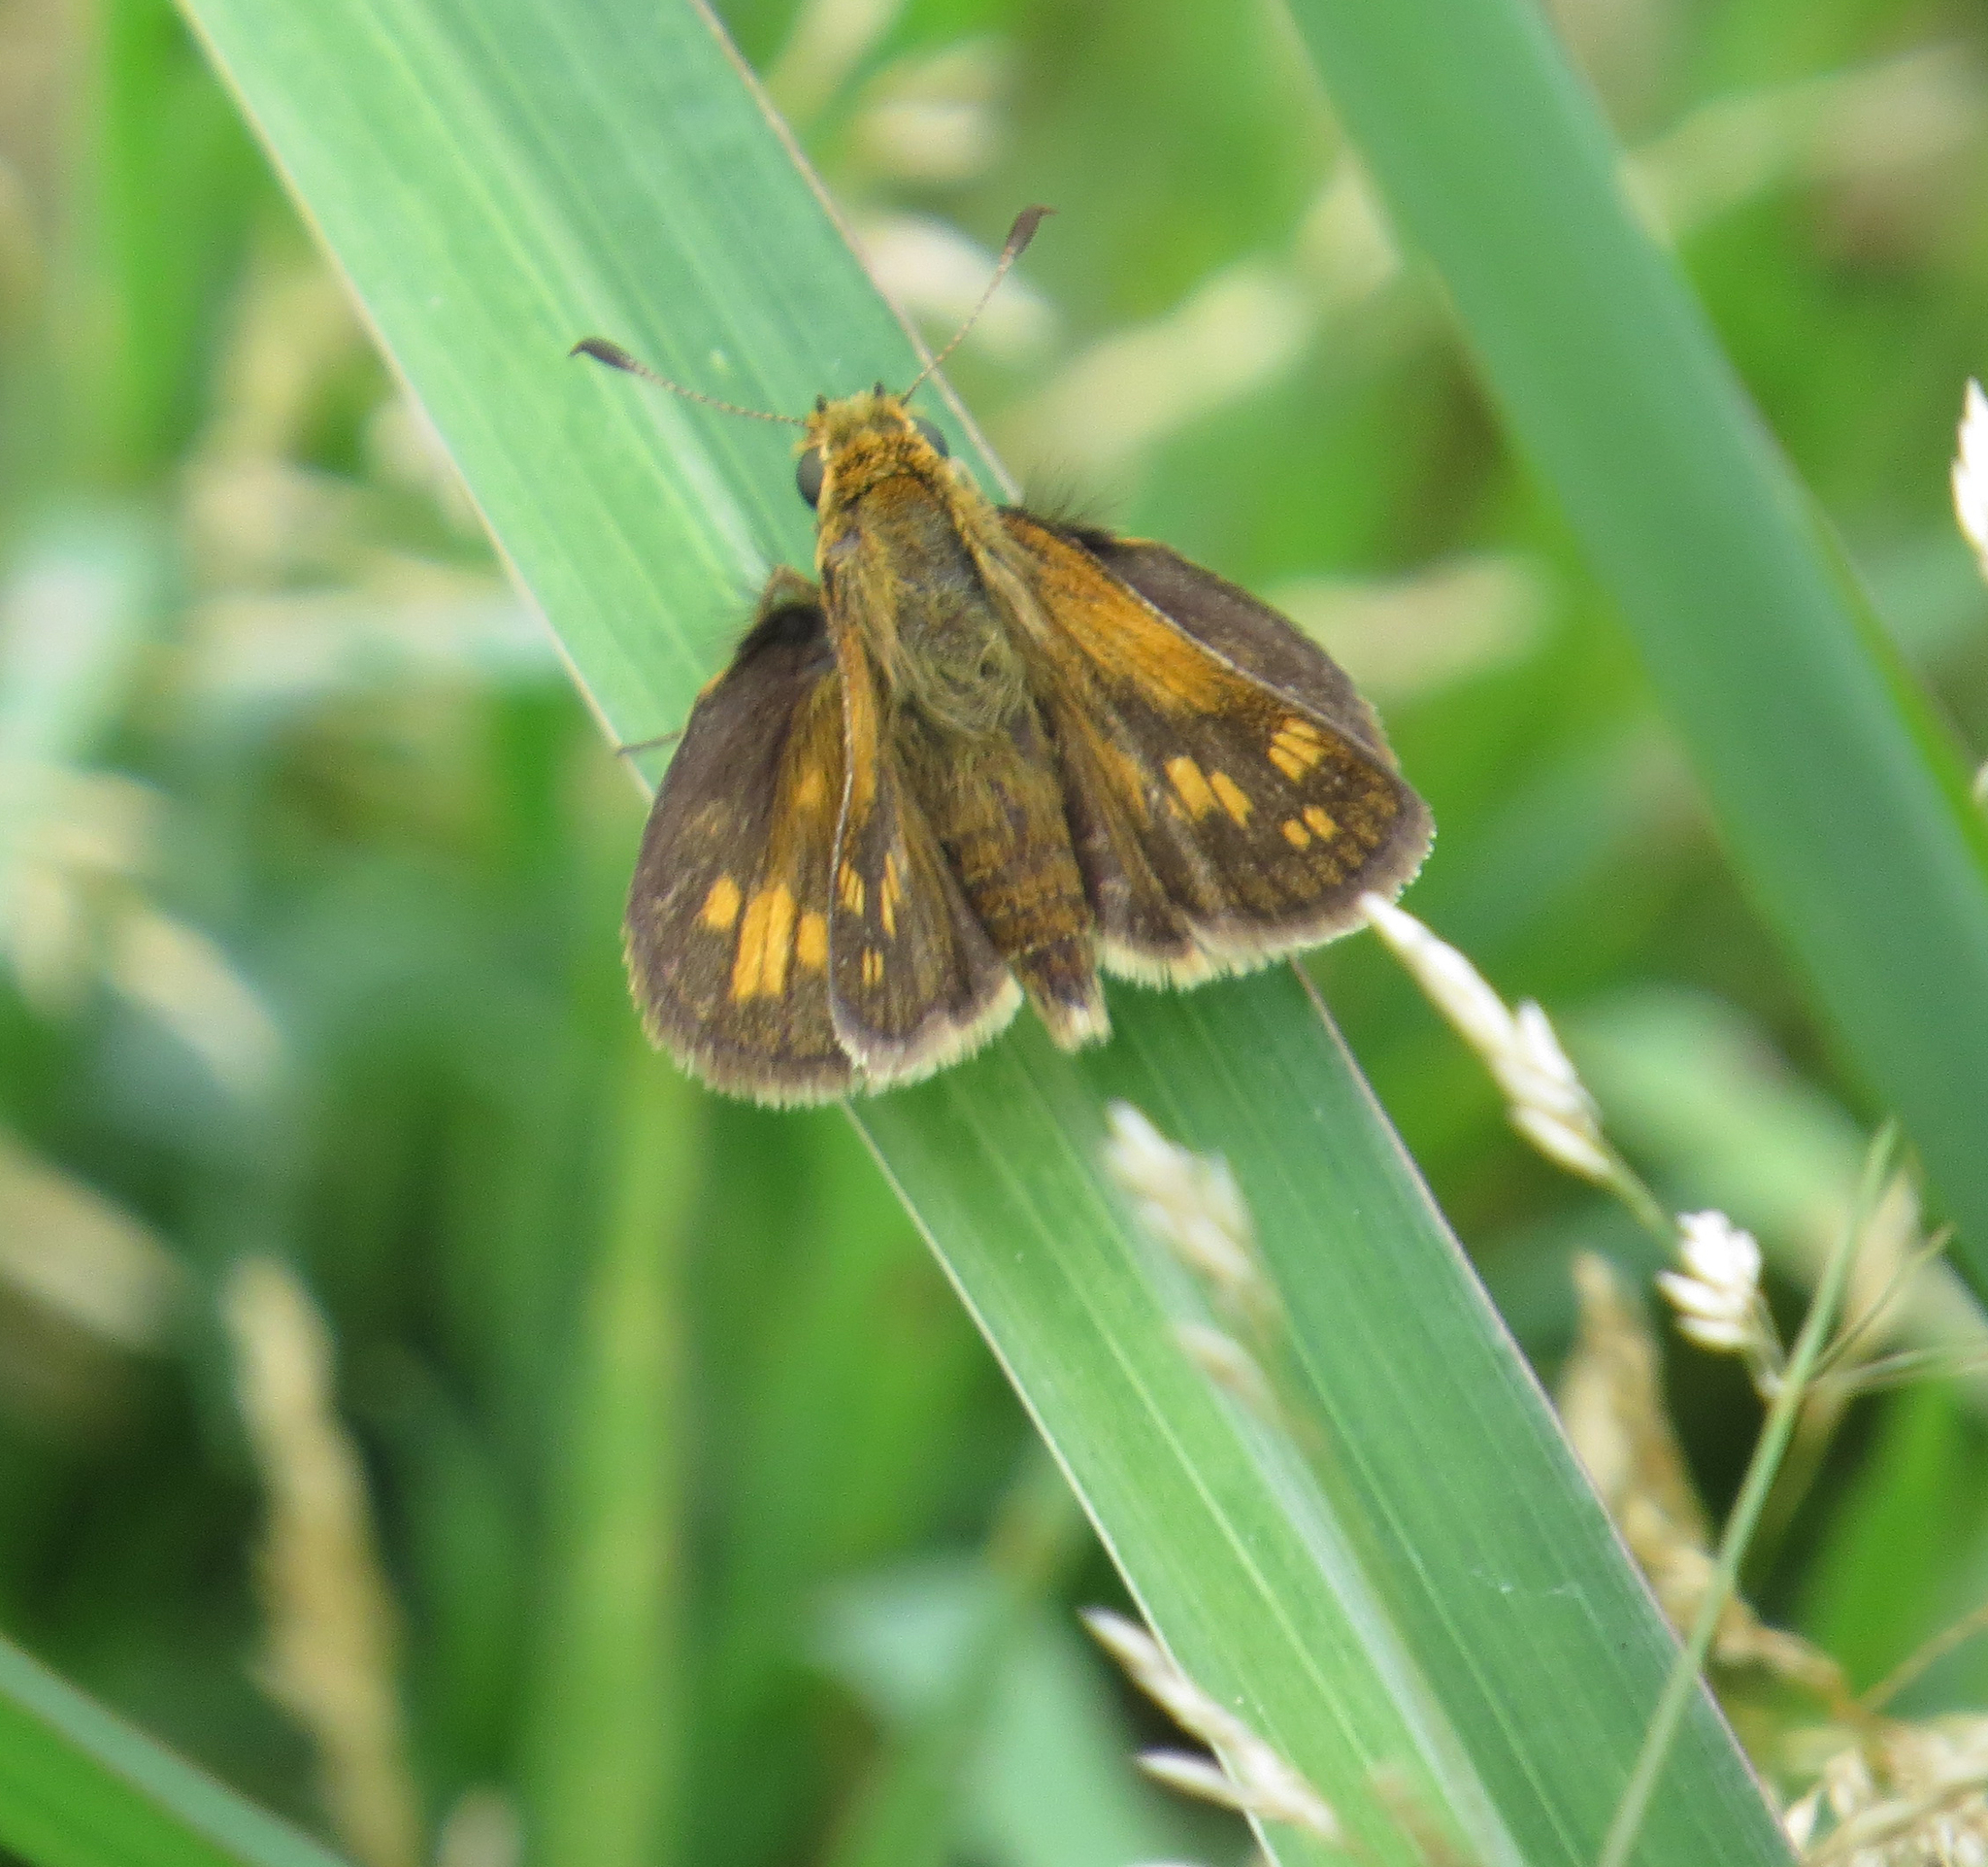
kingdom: Animalia
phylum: Arthropoda
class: Insecta
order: Lepidoptera
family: Hesperiidae
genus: Polites
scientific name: Polites coras
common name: Peck's skipper
